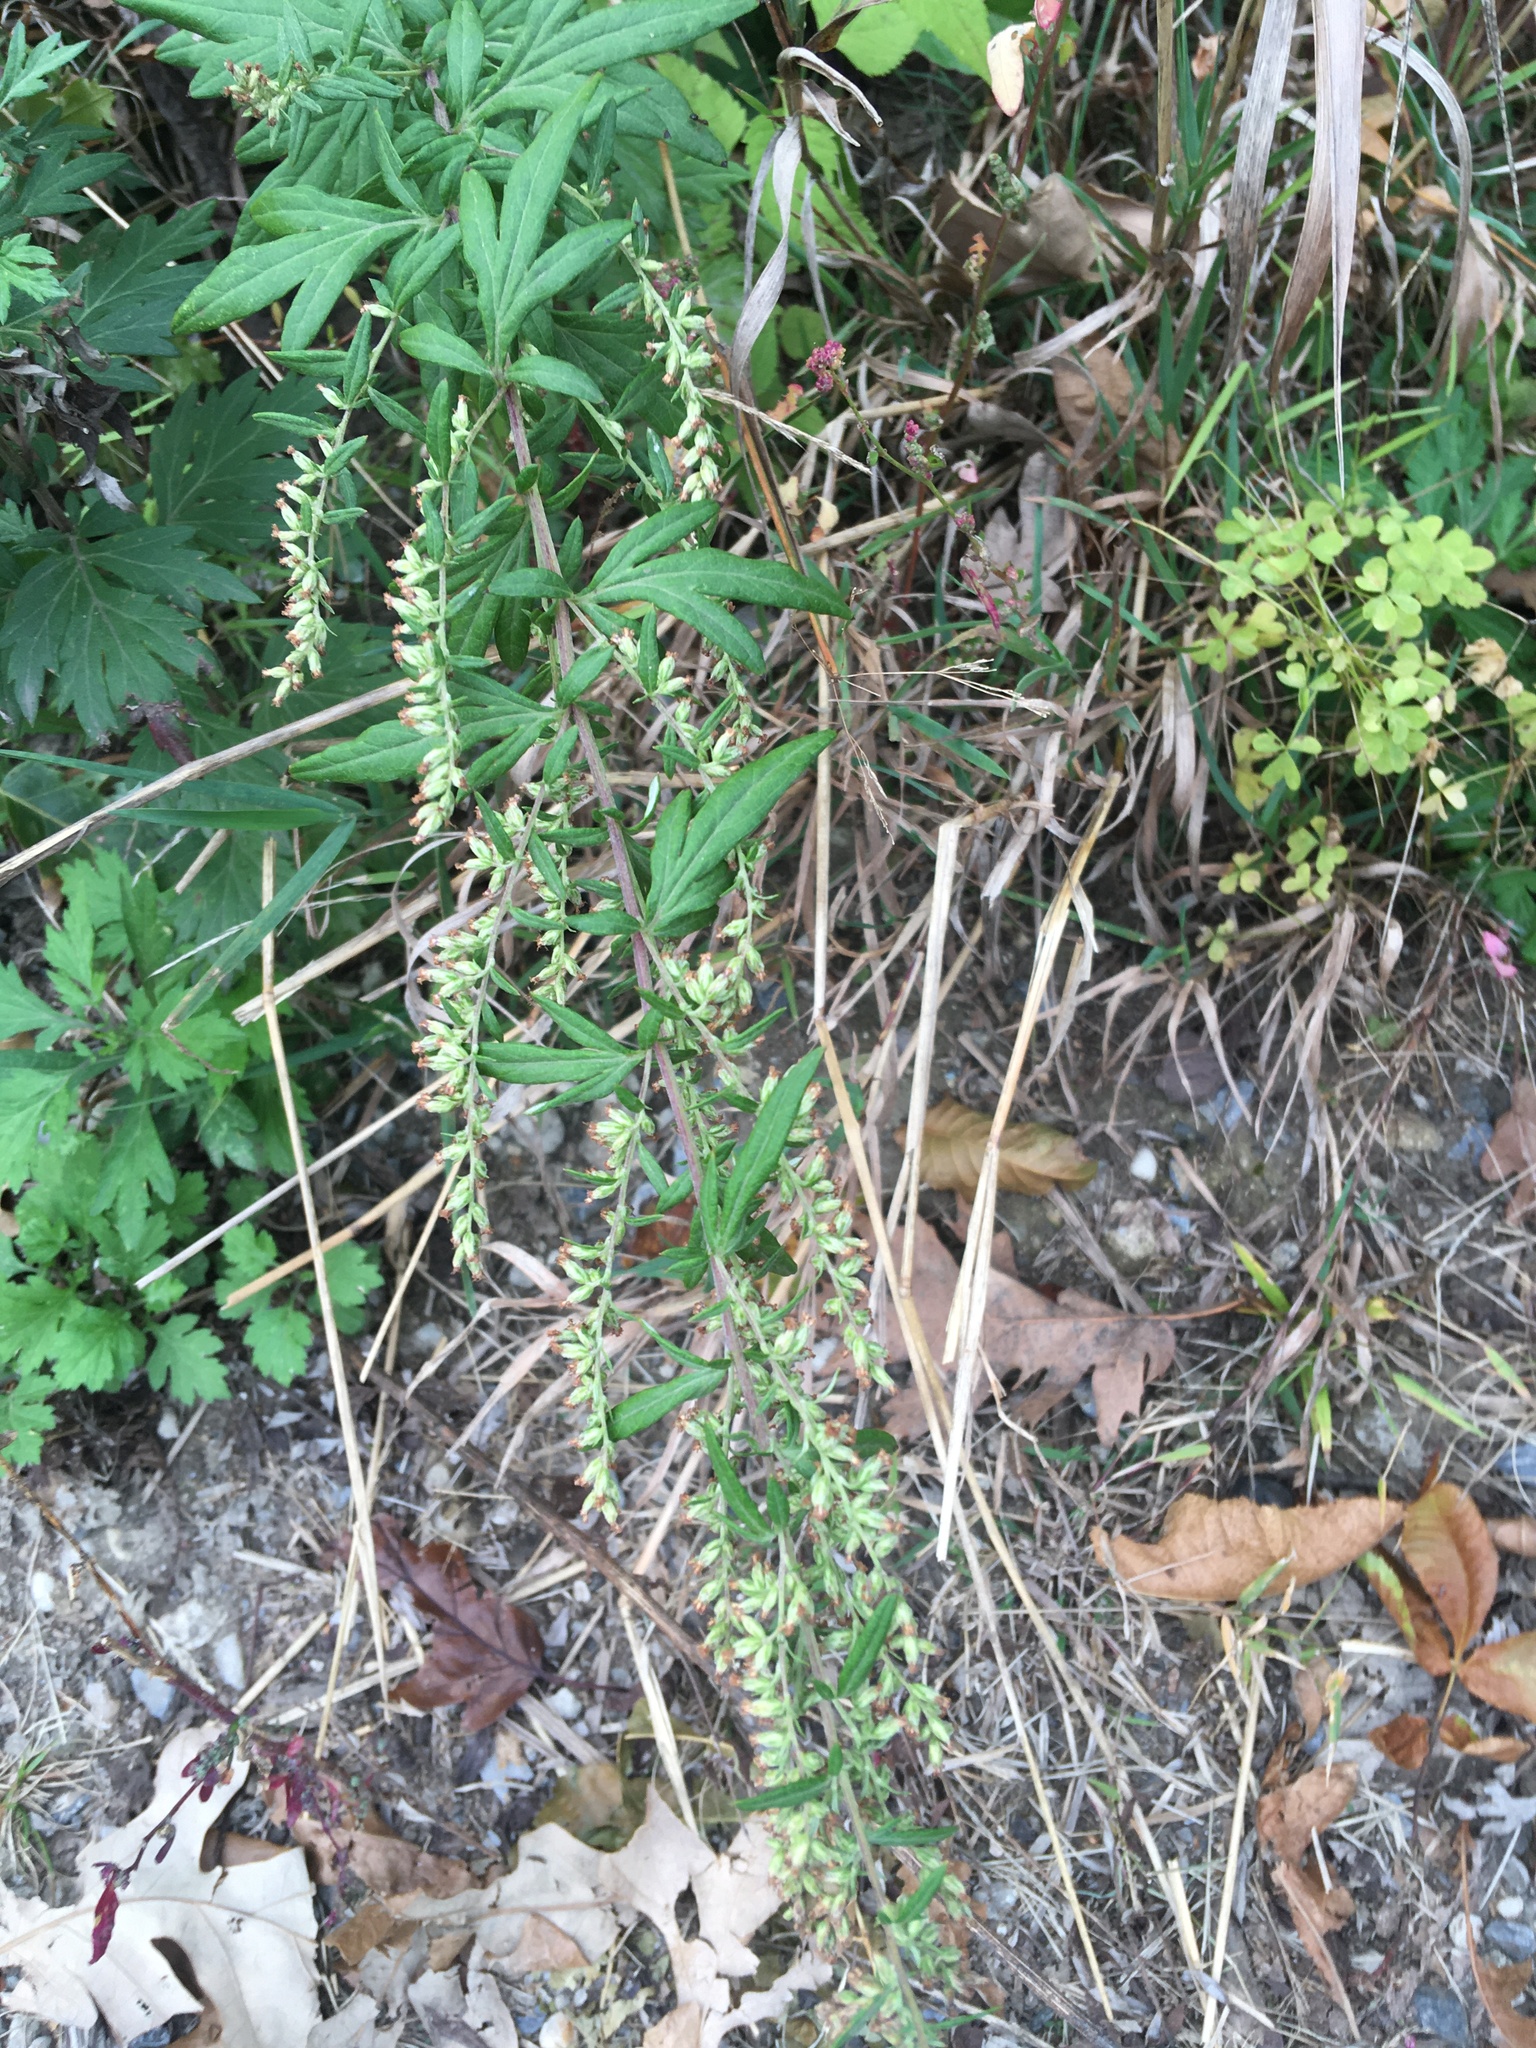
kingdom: Plantae
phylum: Tracheophyta
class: Magnoliopsida
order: Asterales
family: Asteraceae
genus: Artemisia
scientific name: Artemisia vulgaris
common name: Mugwort
